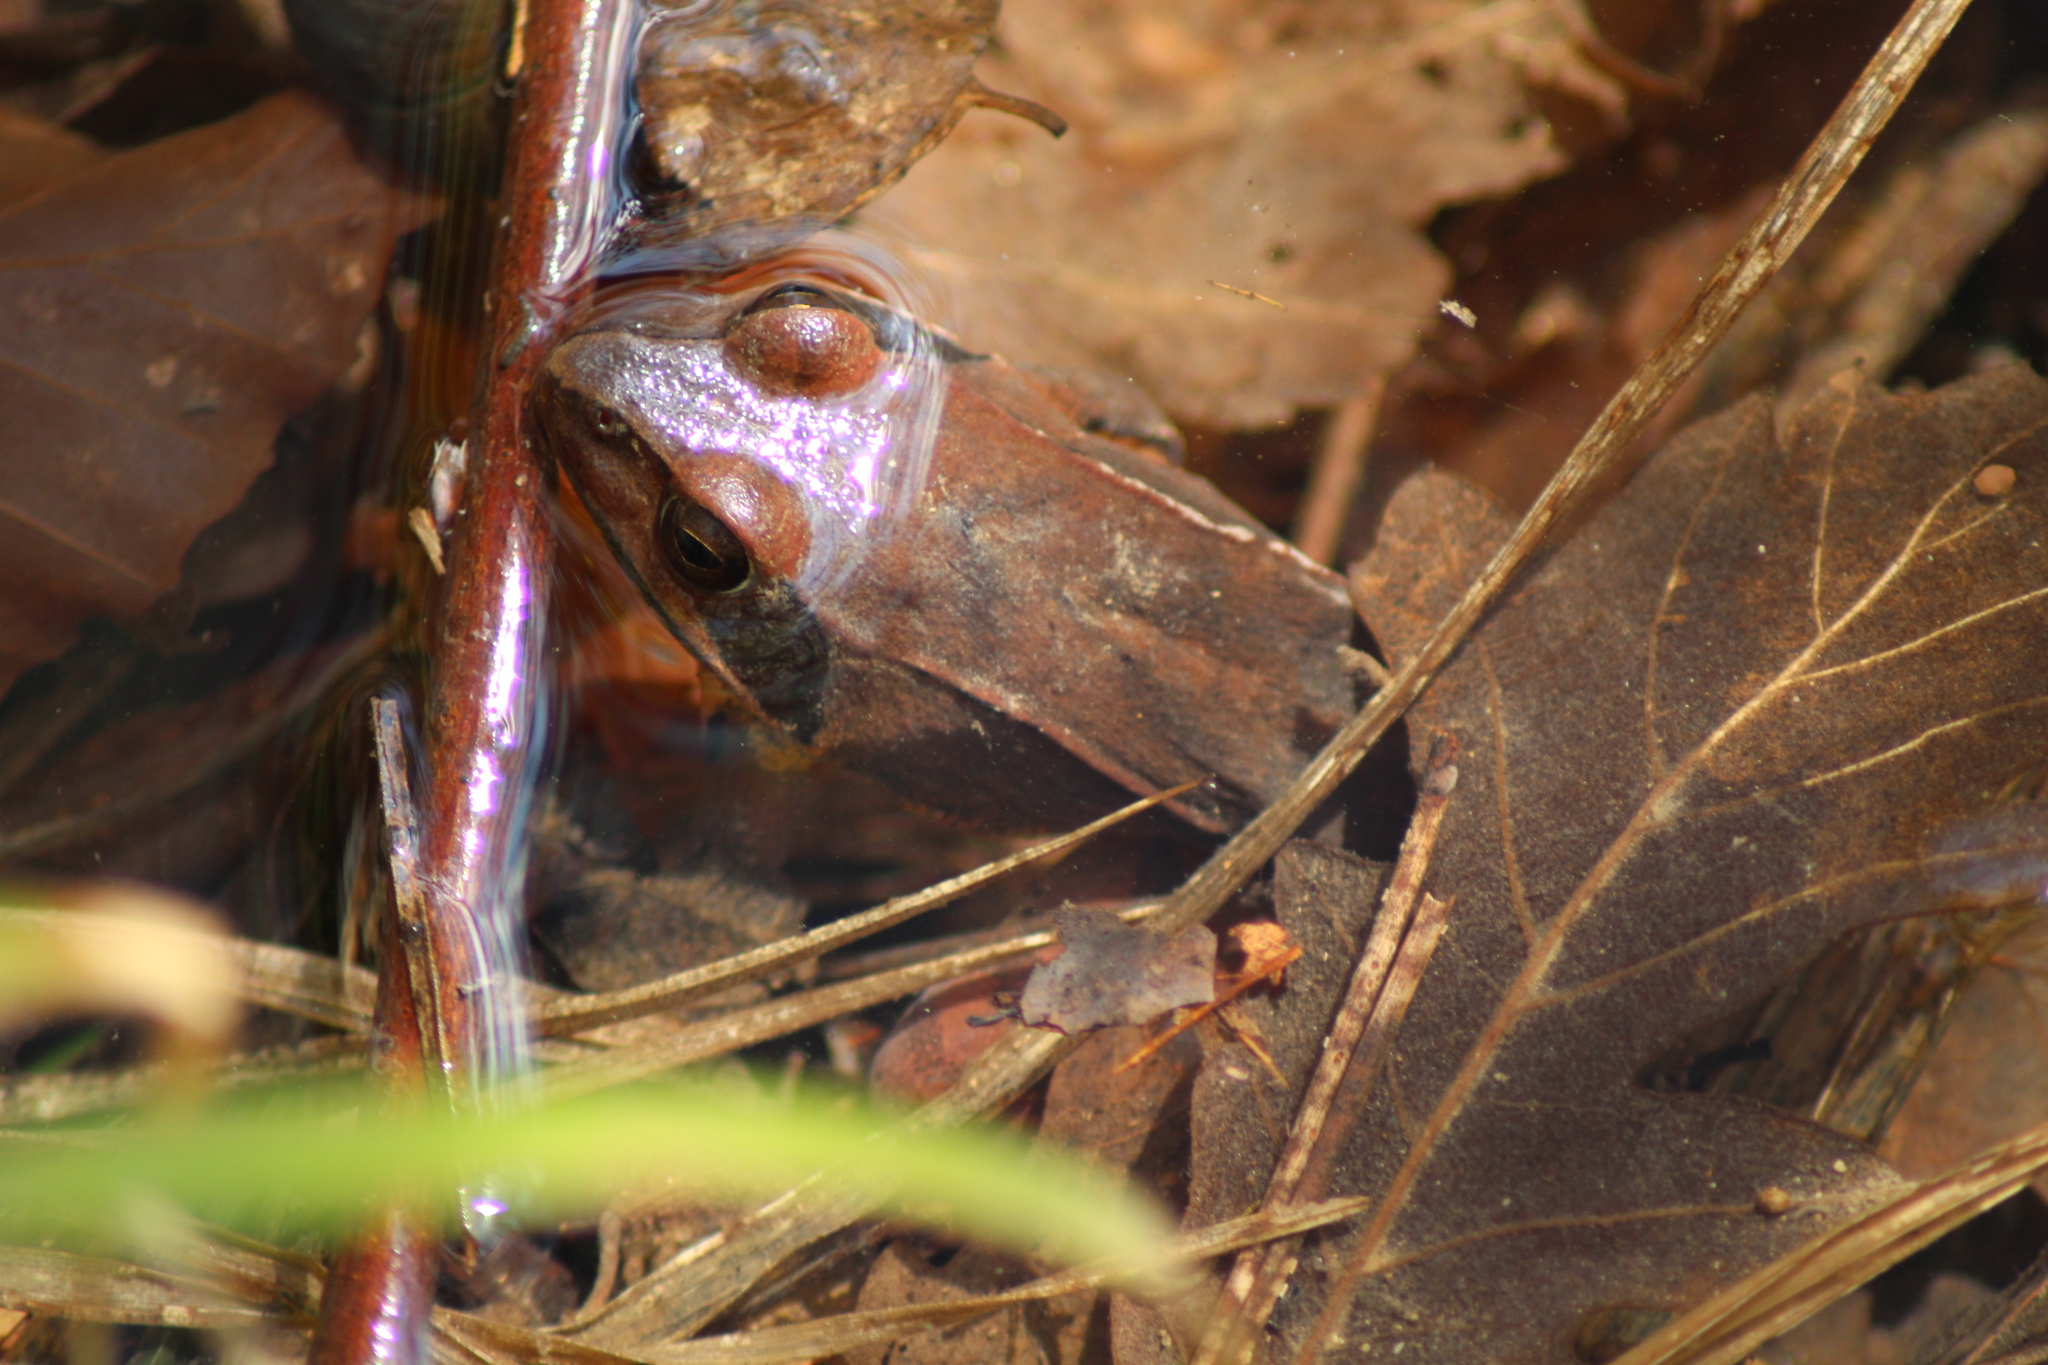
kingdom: Animalia
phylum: Chordata
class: Amphibia
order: Anura
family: Ranidae
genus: Rana
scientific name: Rana dalmatina
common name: Agile frog
